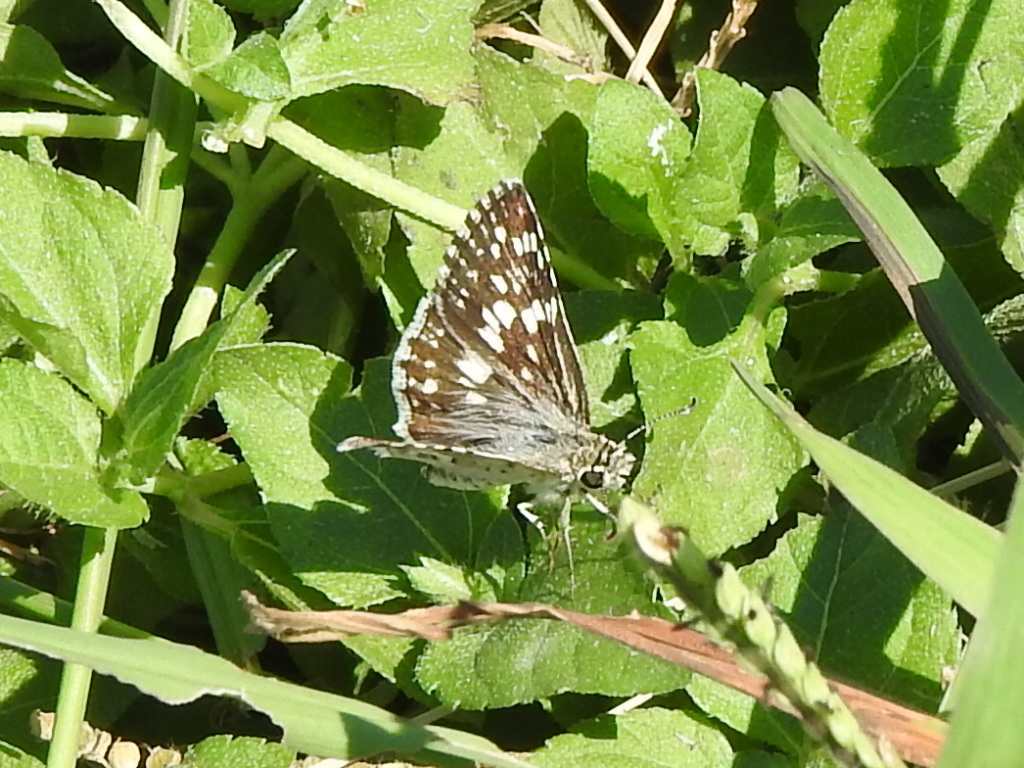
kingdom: Animalia
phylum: Arthropoda
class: Insecta
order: Lepidoptera
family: Hesperiidae
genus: Burnsius
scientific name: Burnsius
